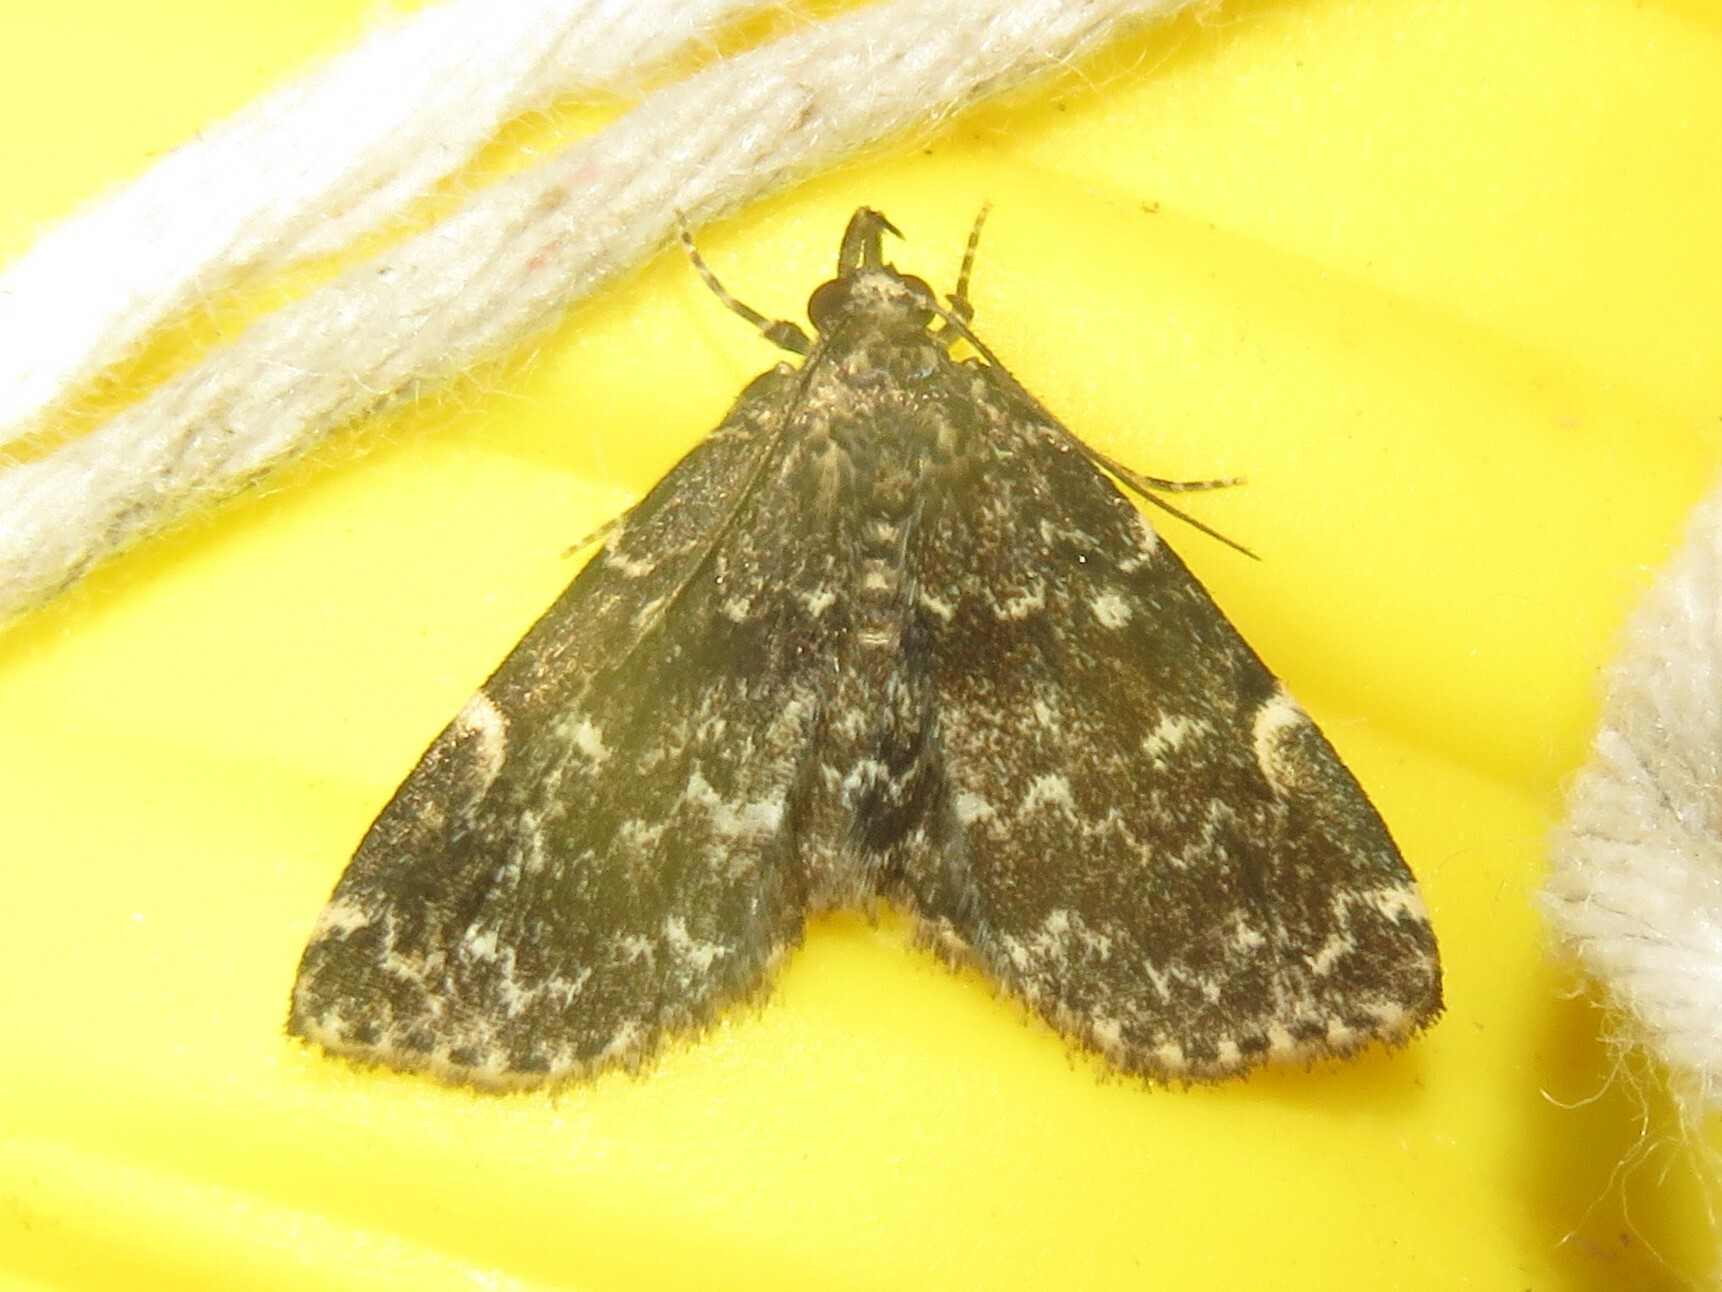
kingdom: Animalia
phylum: Arthropoda
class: Insecta
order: Lepidoptera
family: Erebidae
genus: Idia
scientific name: Idia scobialis
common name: Smoky idia moth
